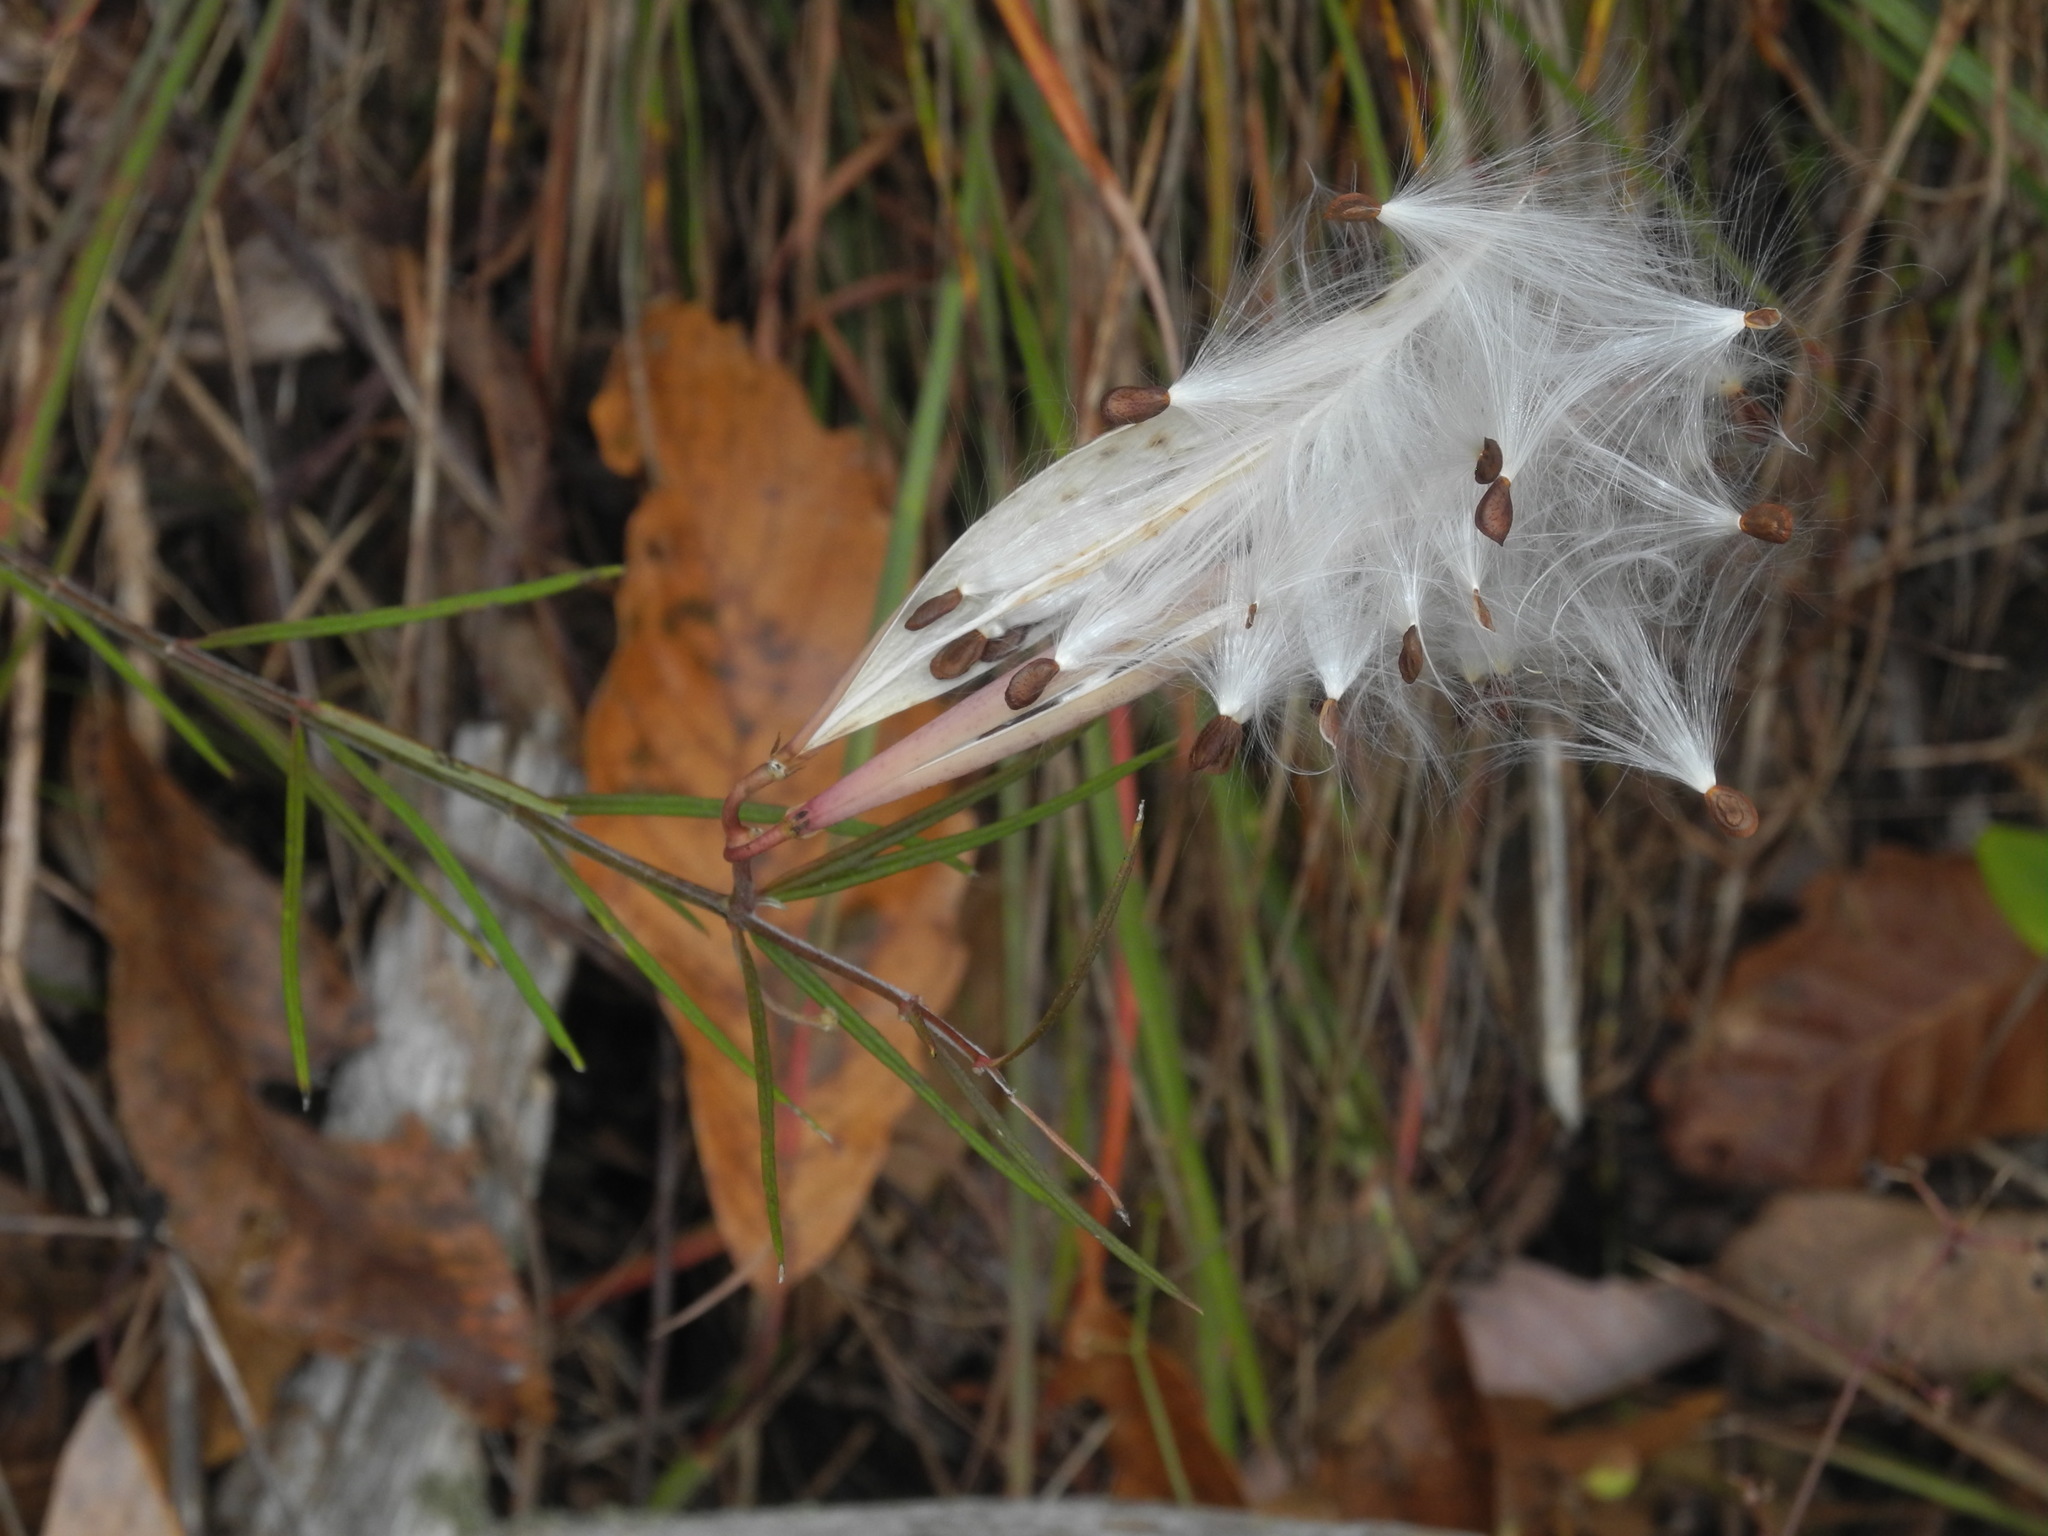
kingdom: Plantae
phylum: Tracheophyta
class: Magnoliopsida
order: Gentianales
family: Apocynaceae
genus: Asclepias
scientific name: Asclepias verticillata
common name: Eastern whorled milkweed
